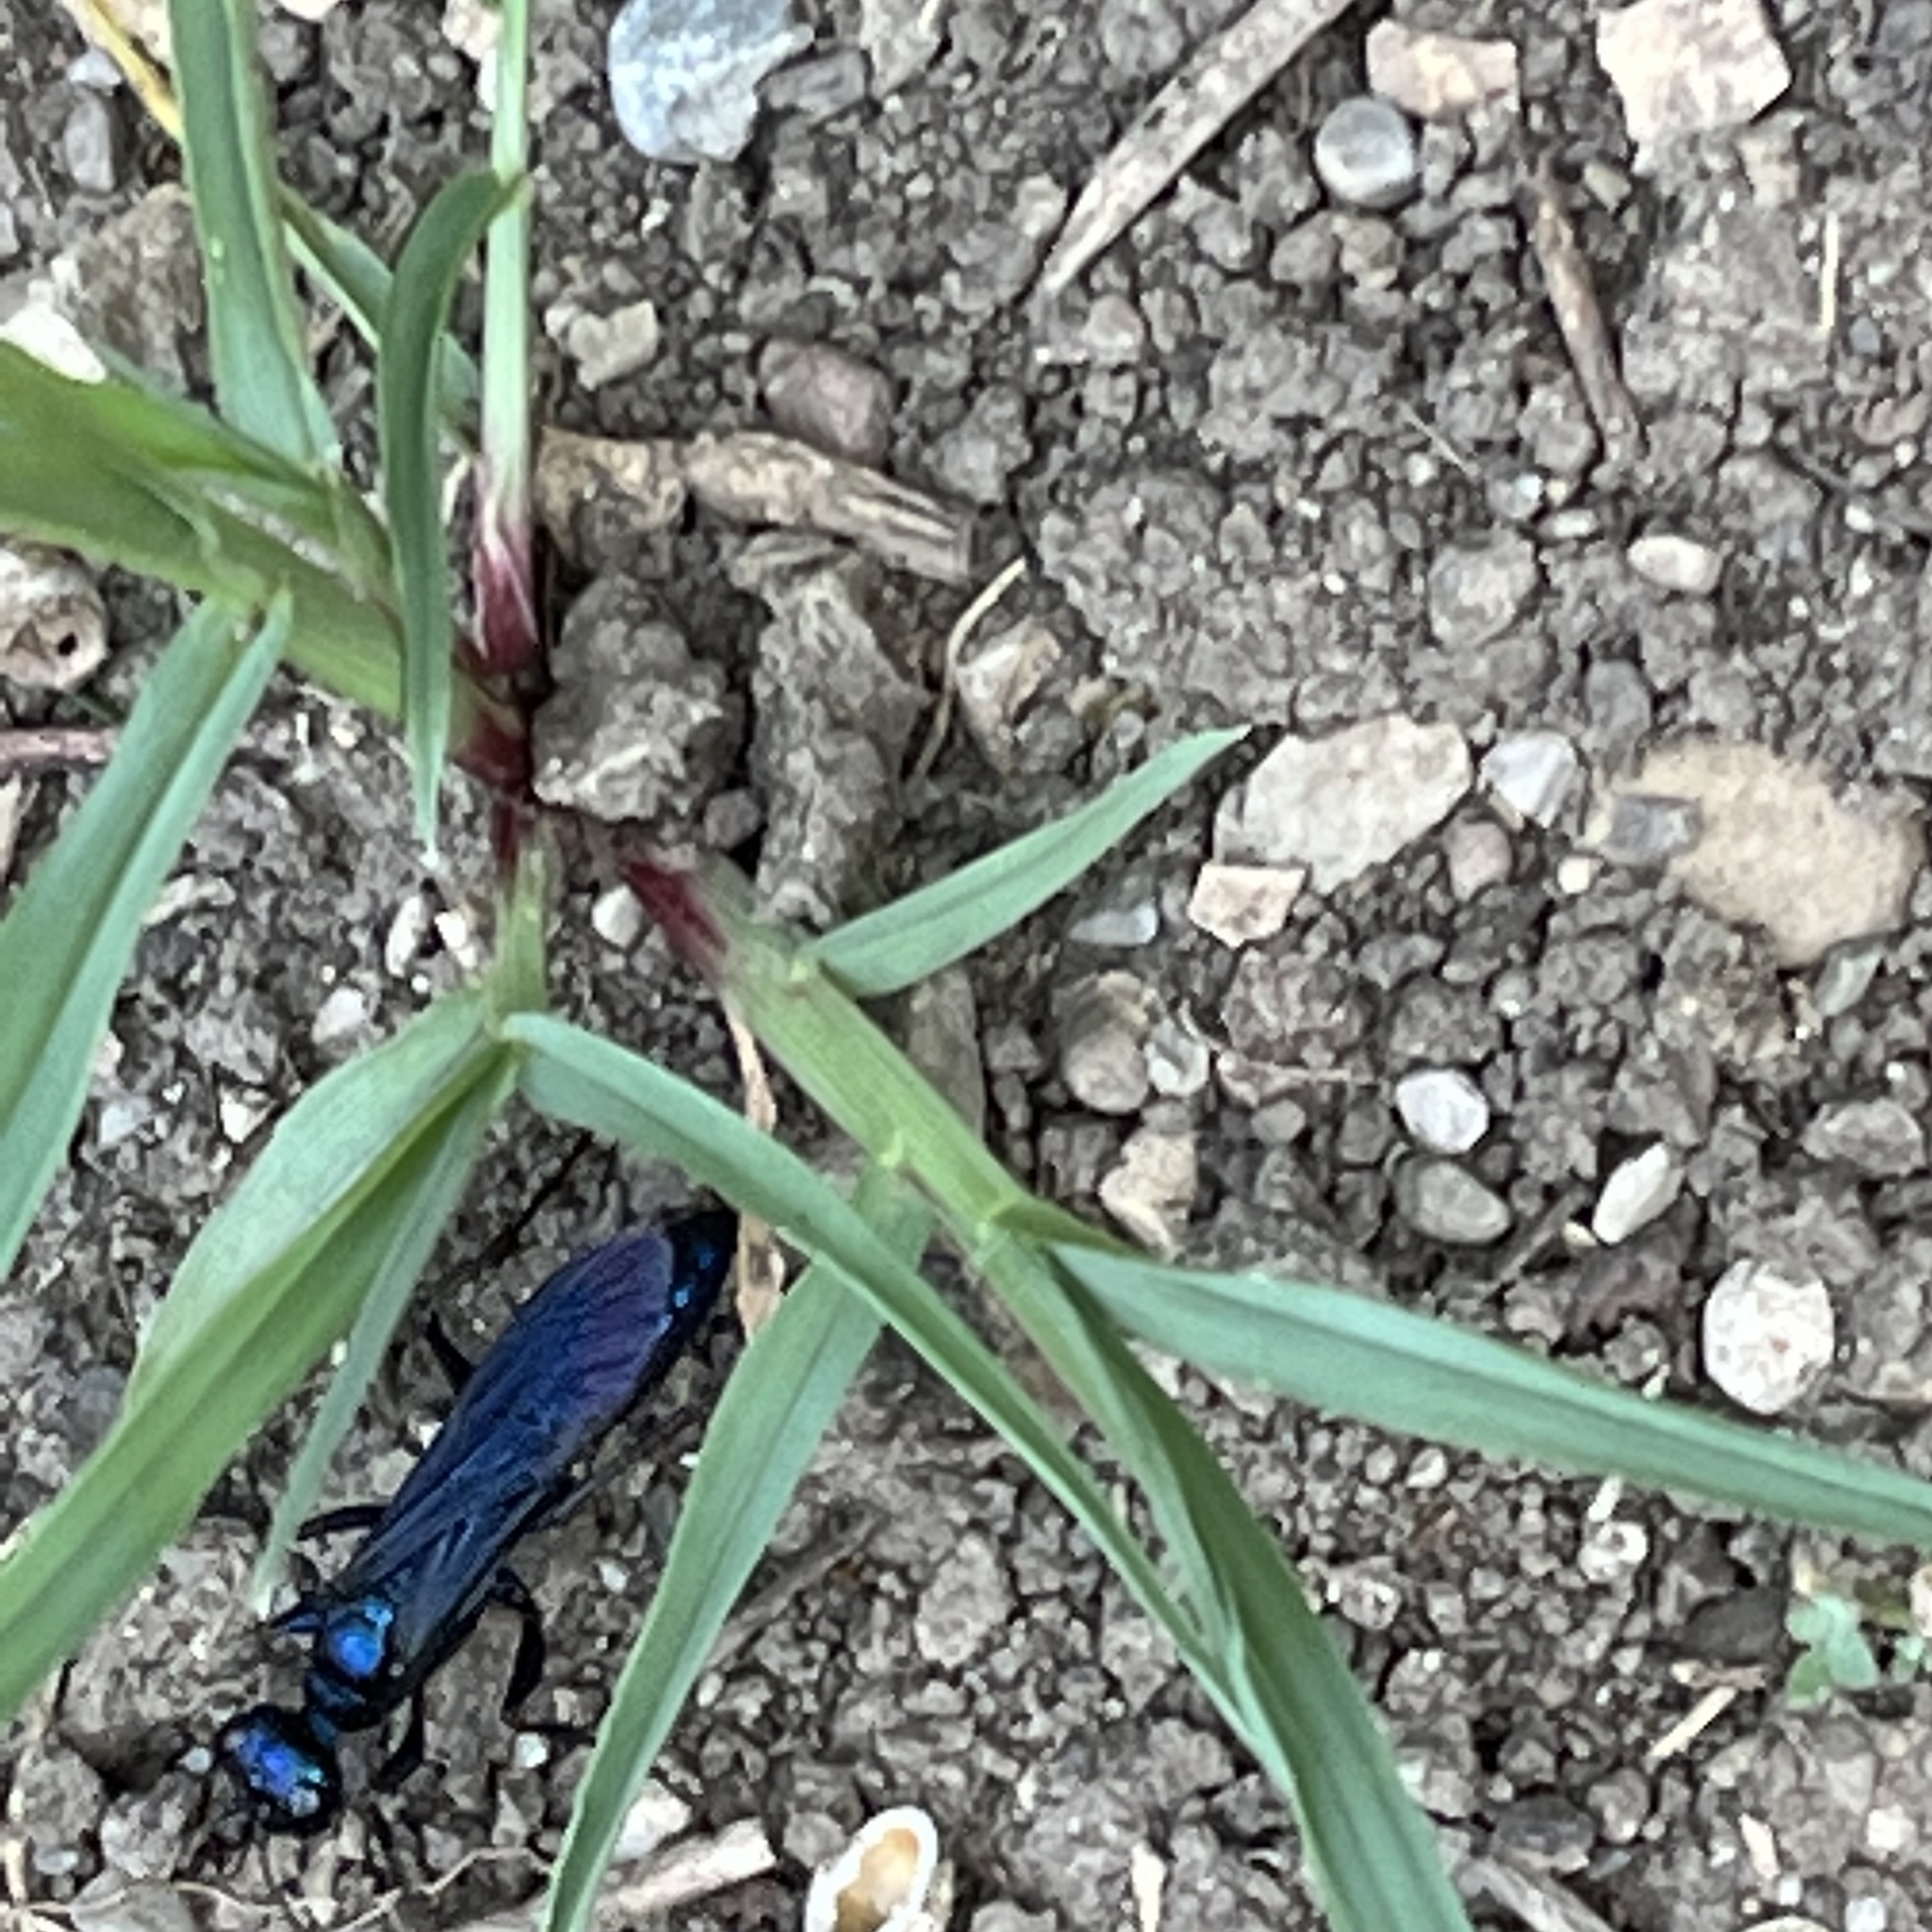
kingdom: Animalia
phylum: Arthropoda
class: Insecta
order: Hymenoptera
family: Sphecidae
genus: Chlorion
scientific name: Chlorion aerarium
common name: Steel-blue cricket hunter
